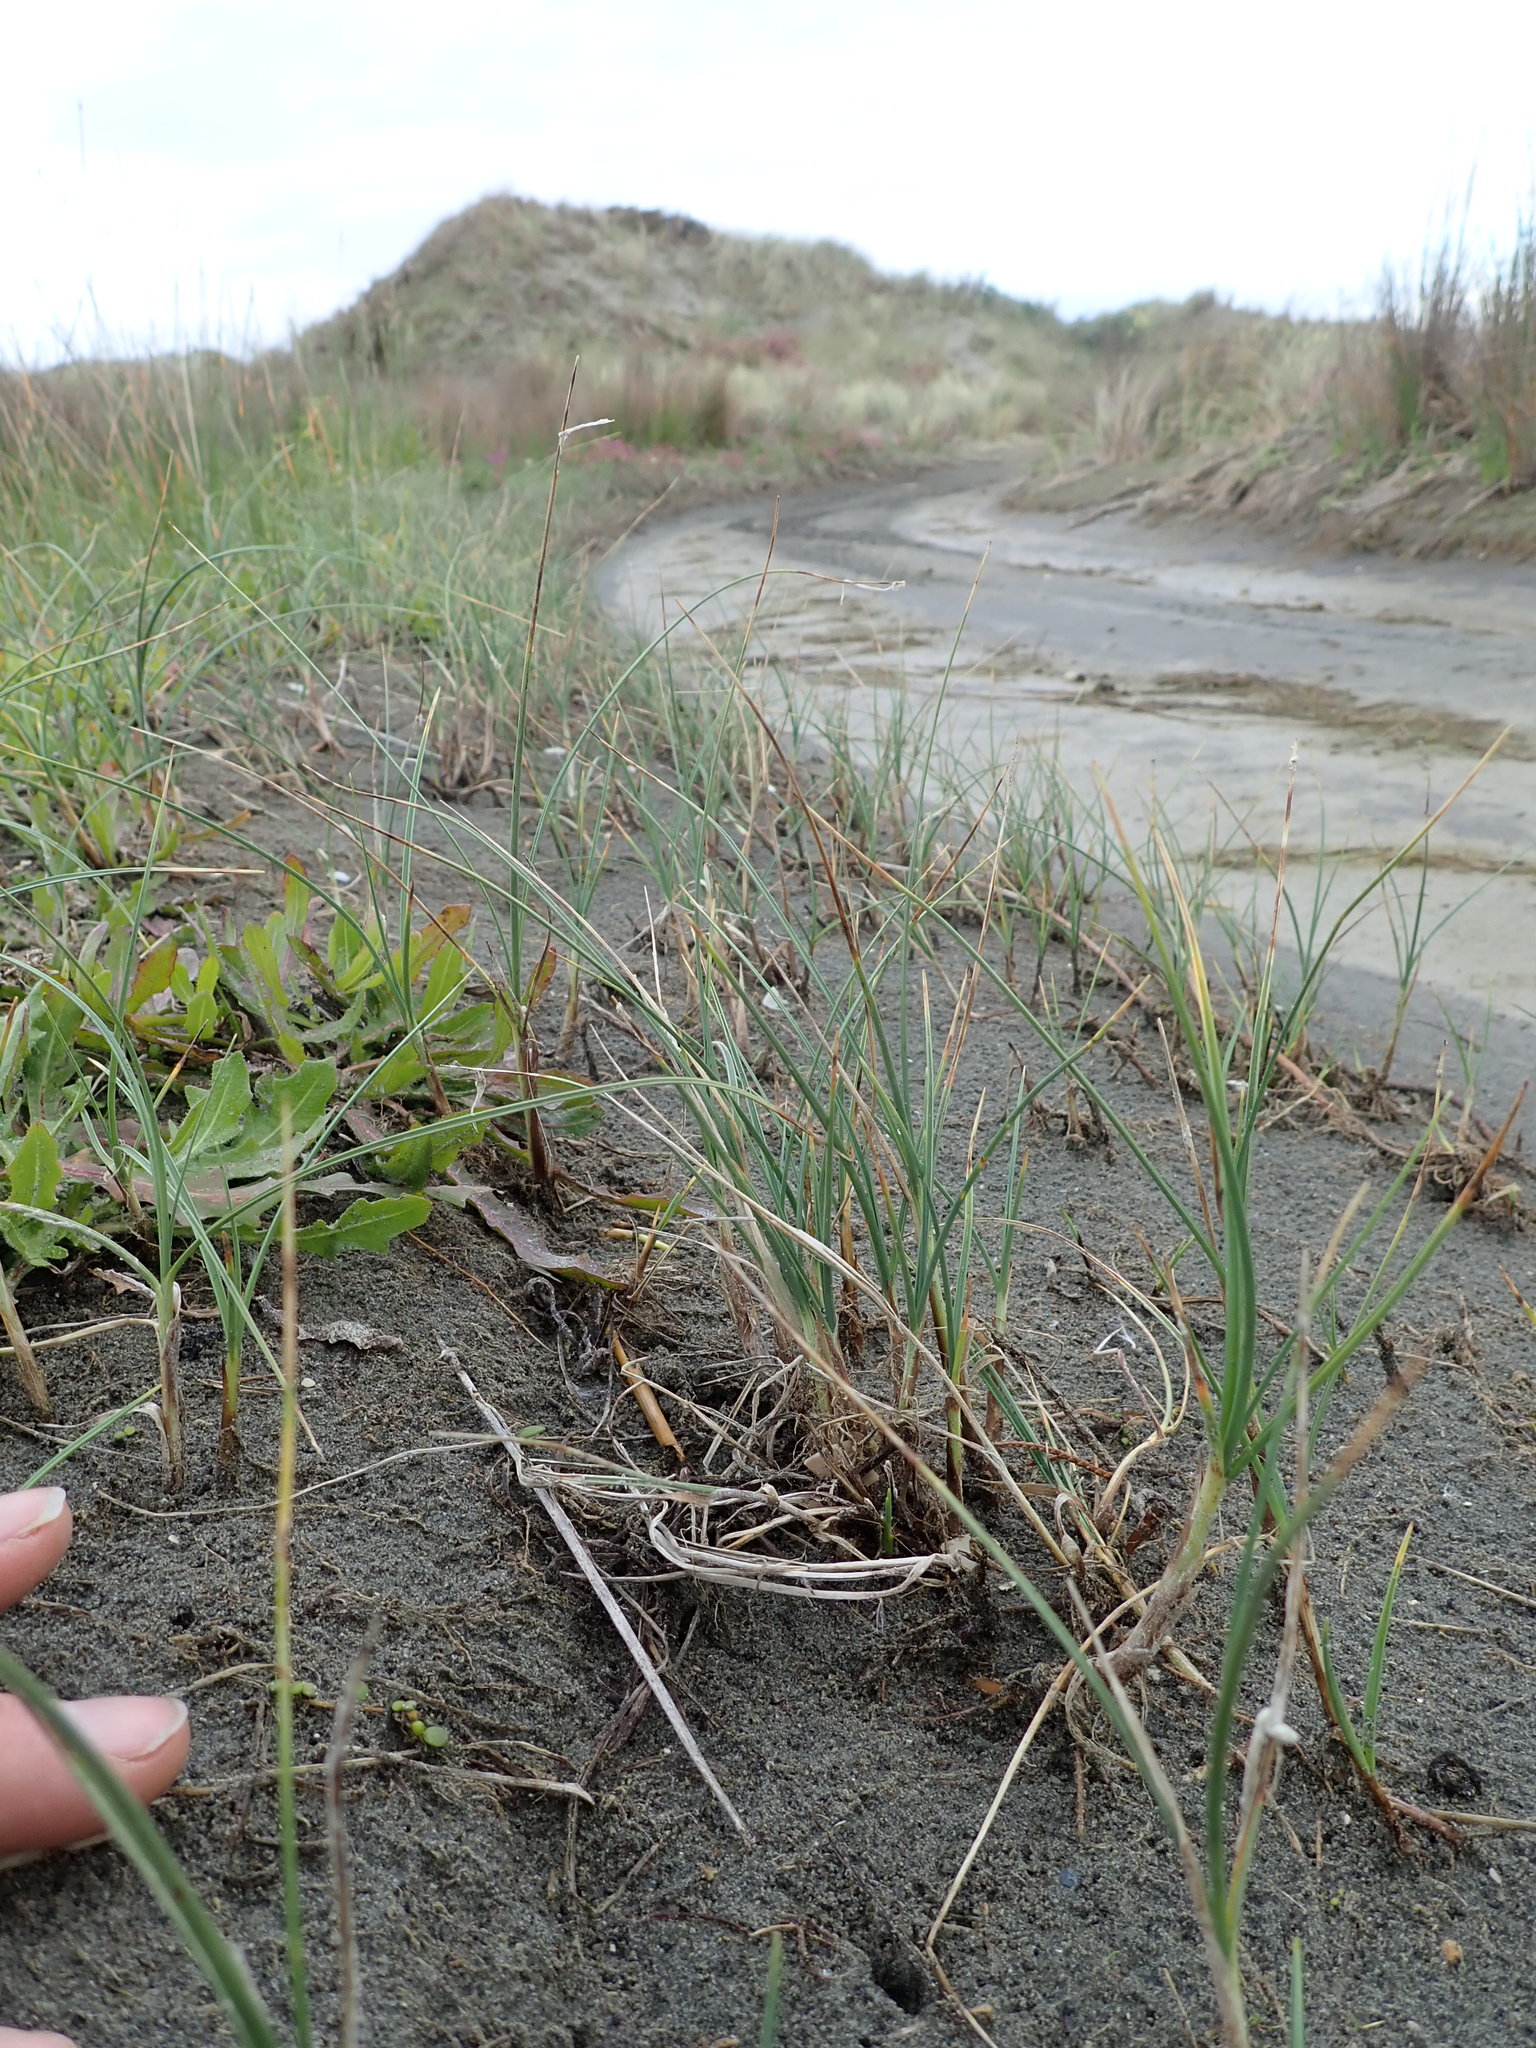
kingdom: Plantae
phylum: Tracheophyta
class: Liliopsida
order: Poales
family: Cyperaceae
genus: Carex
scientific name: Carex pumila
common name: Dwarf sedge
